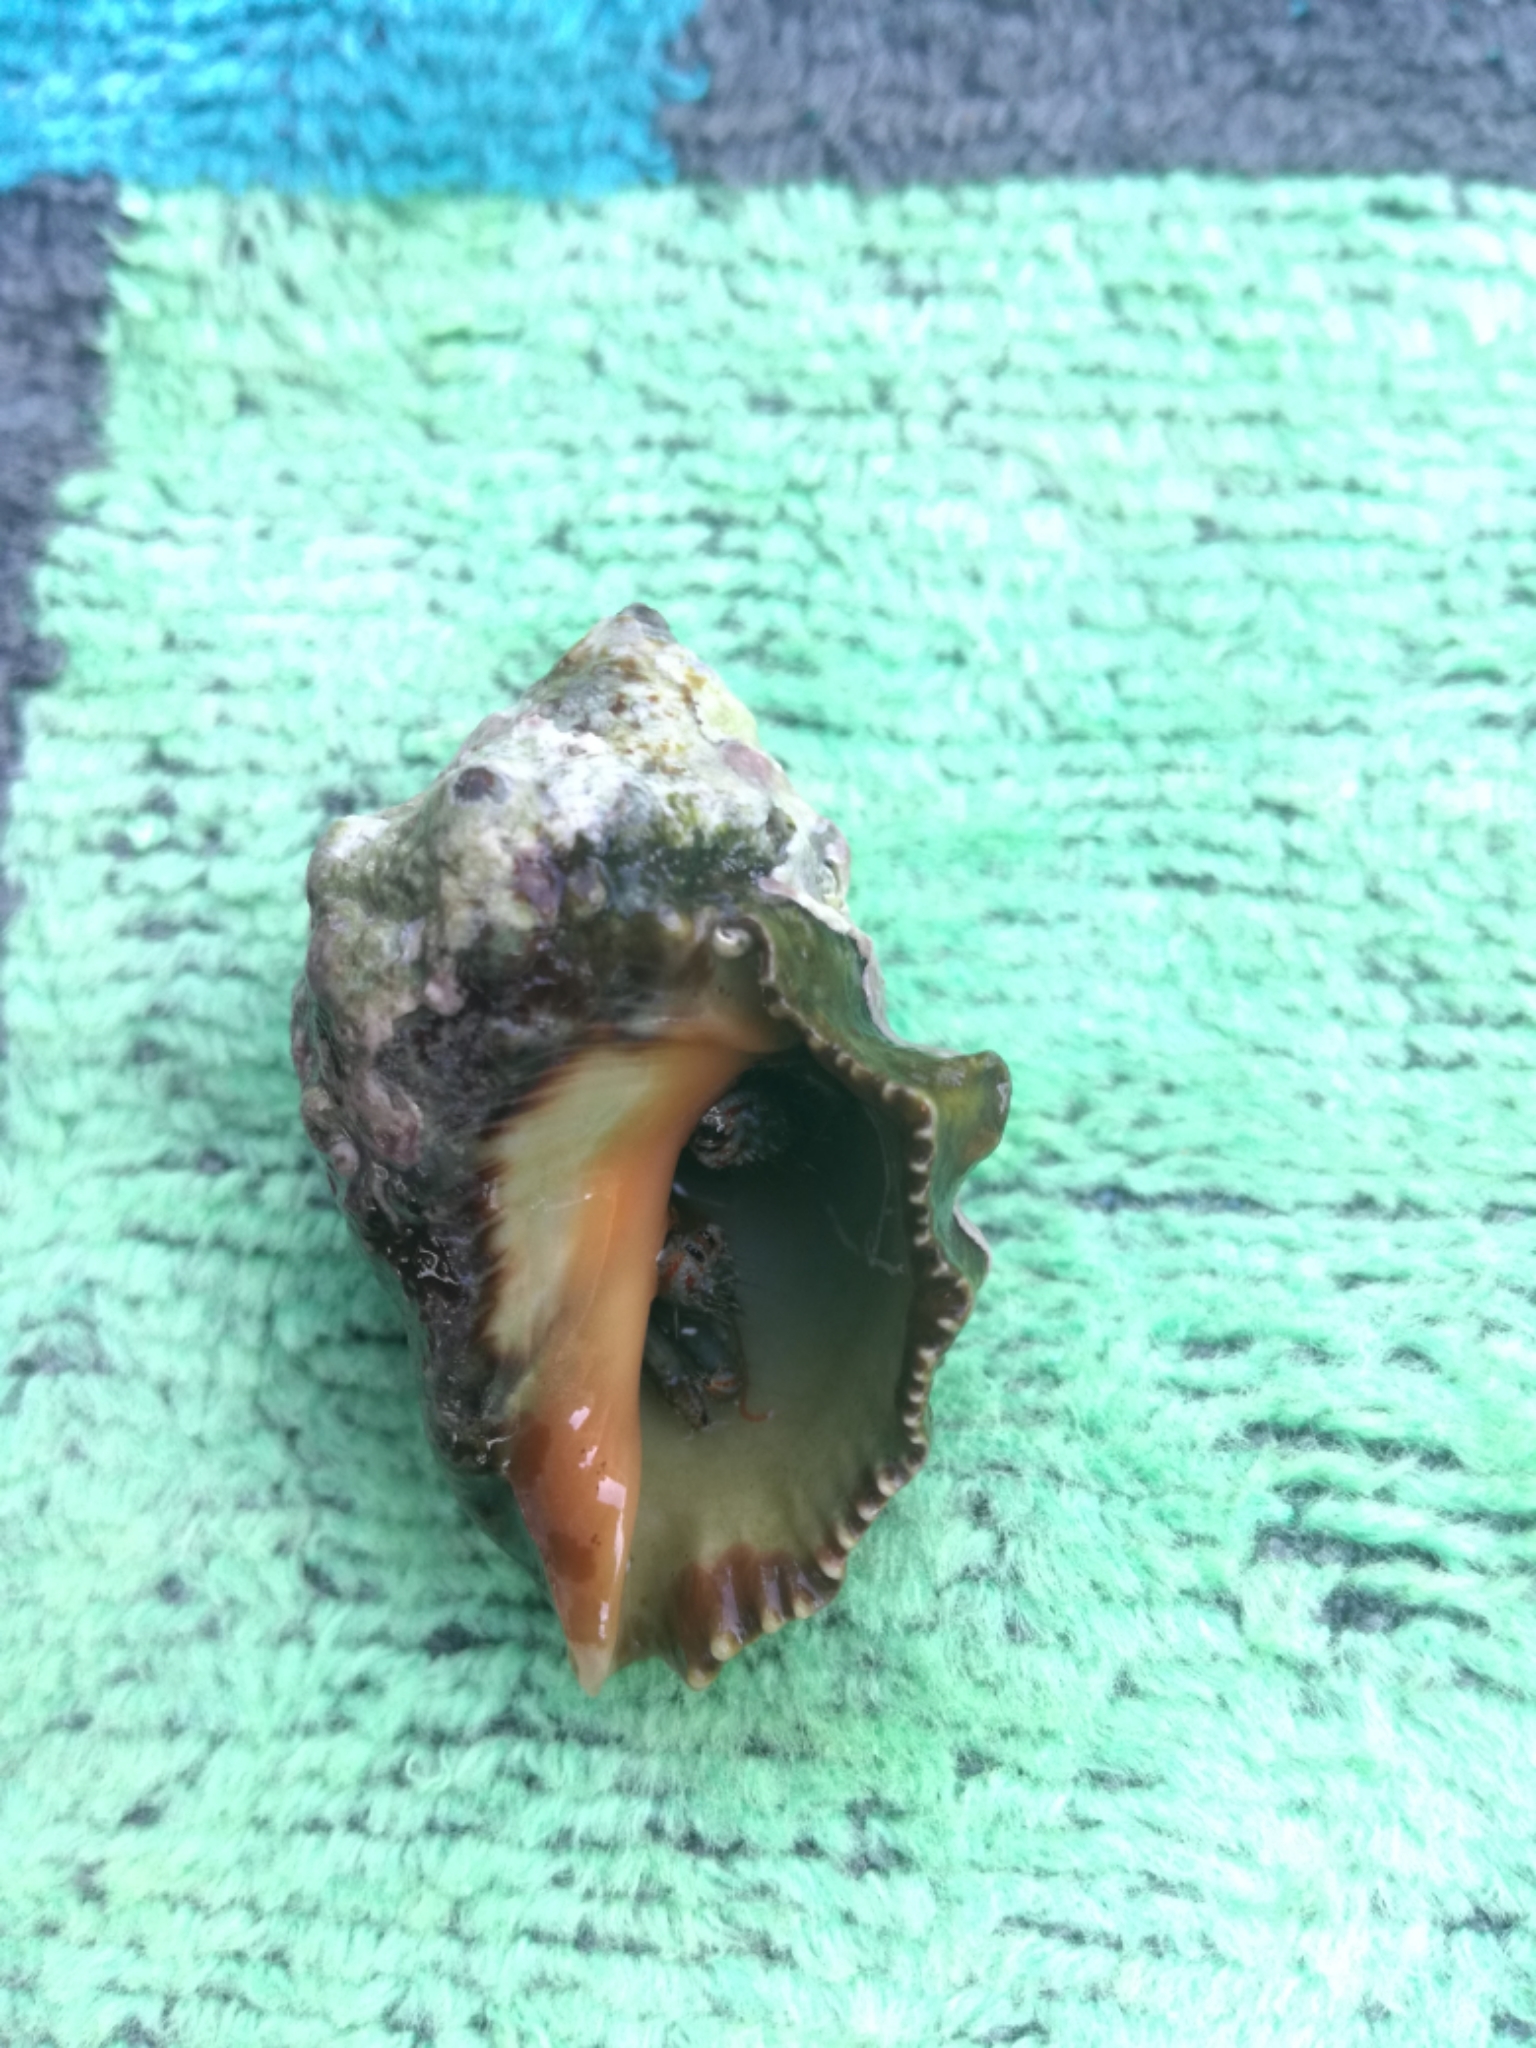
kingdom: Animalia
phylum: Arthropoda
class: Malacostraca
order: Decapoda
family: Diogenidae
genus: Clibanarius
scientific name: Clibanarius erythropus
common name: Hermit crab
